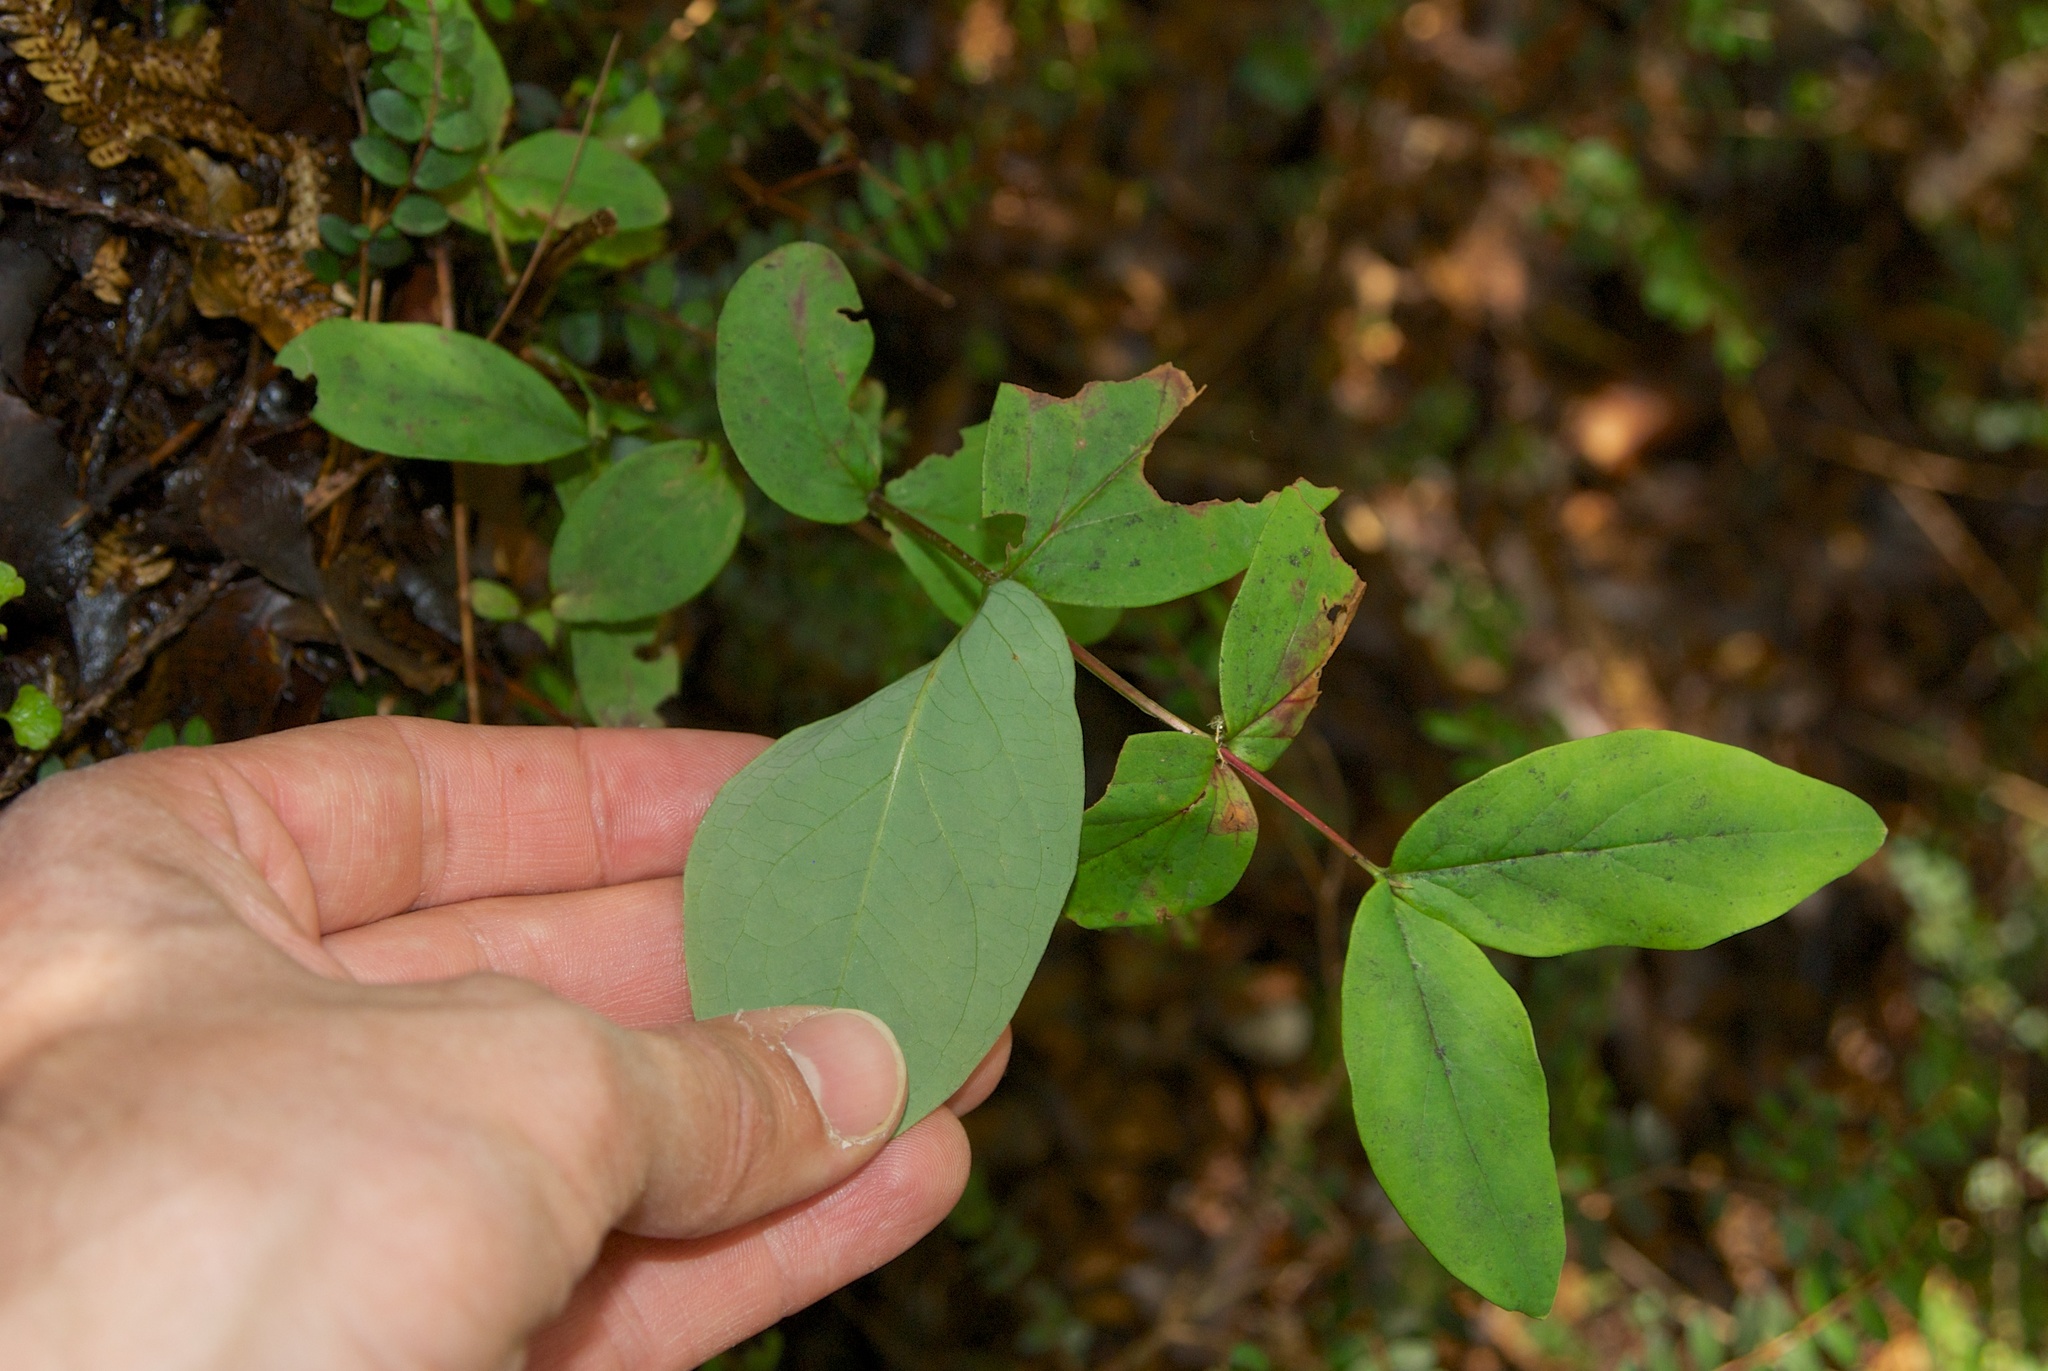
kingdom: Plantae
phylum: Tracheophyta
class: Magnoliopsida
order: Malpighiales
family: Hypericaceae
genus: Hypericum
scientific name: Hypericum androsaemum
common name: Sweet-amber
